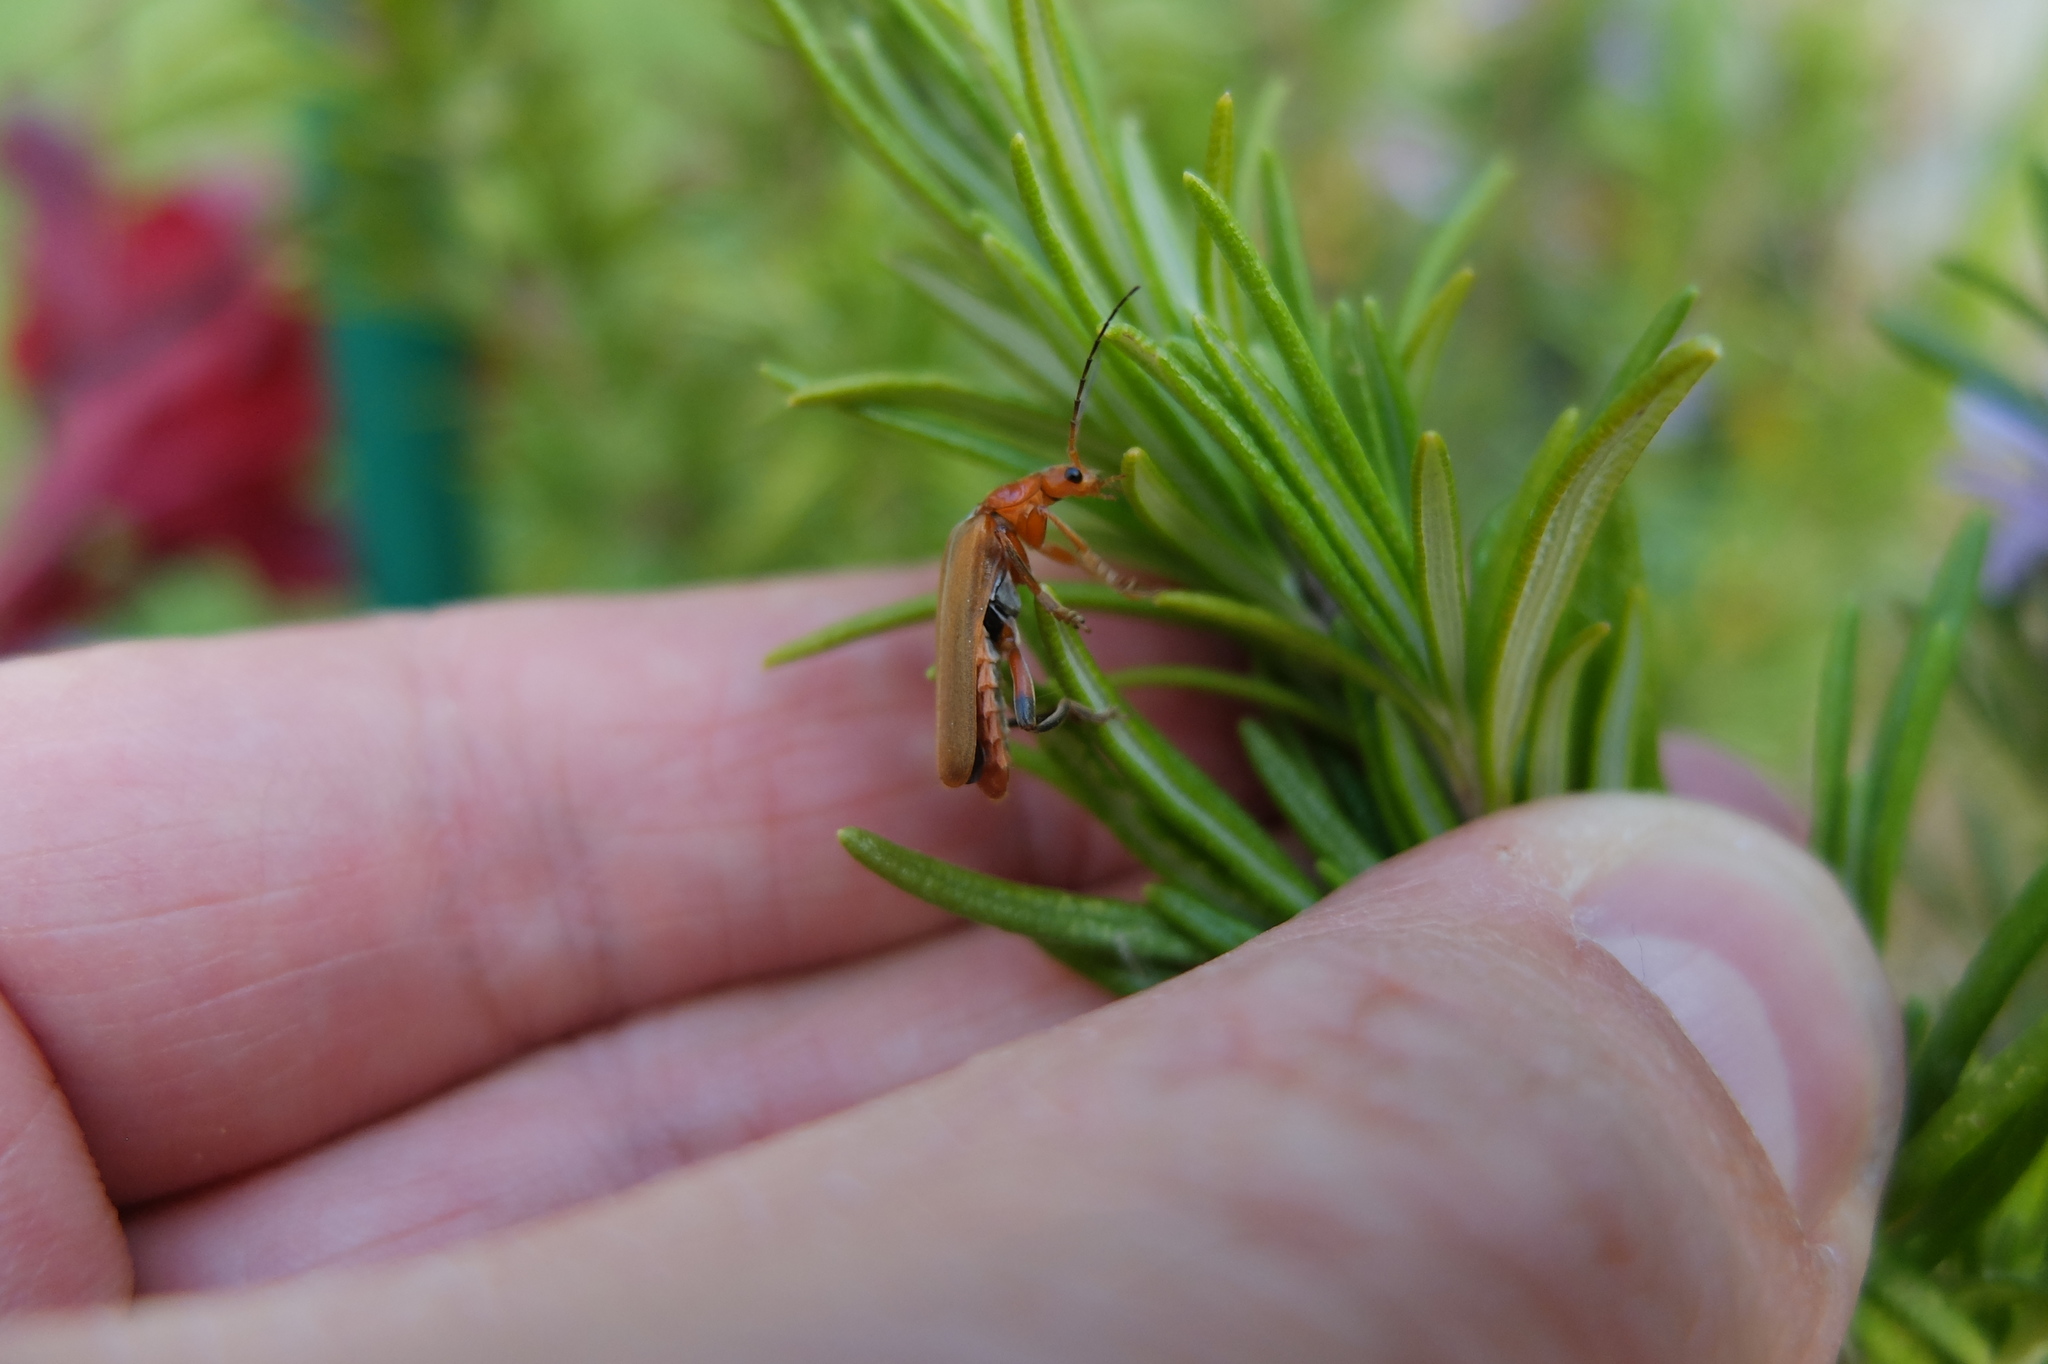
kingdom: Animalia
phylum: Arthropoda
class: Insecta
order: Coleoptera
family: Cantharidae
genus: Cantharis
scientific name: Cantharis livida
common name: Livid soldier beetle
